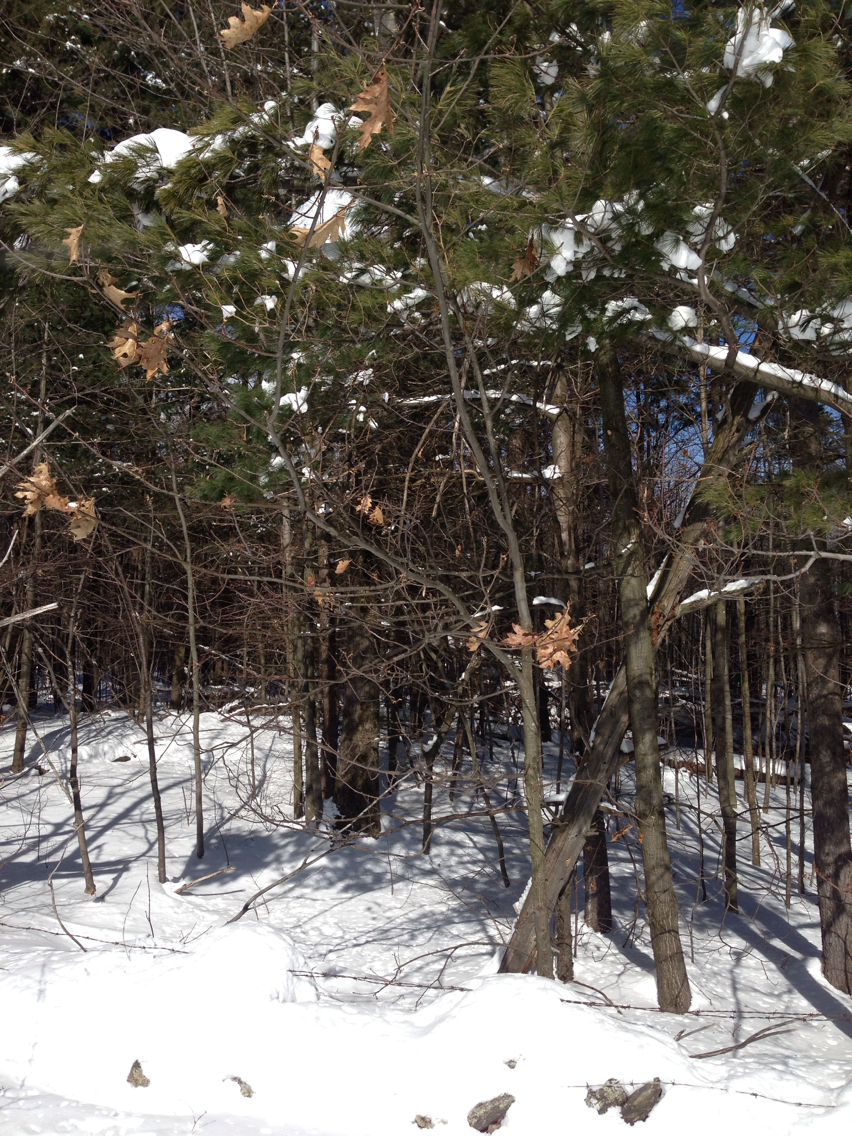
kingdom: Plantae
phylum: Tracheophyta
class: Magnoliopsida
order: Fagales
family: Fagaceae
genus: Quercus
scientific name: Quercus rubra
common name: Red oak
